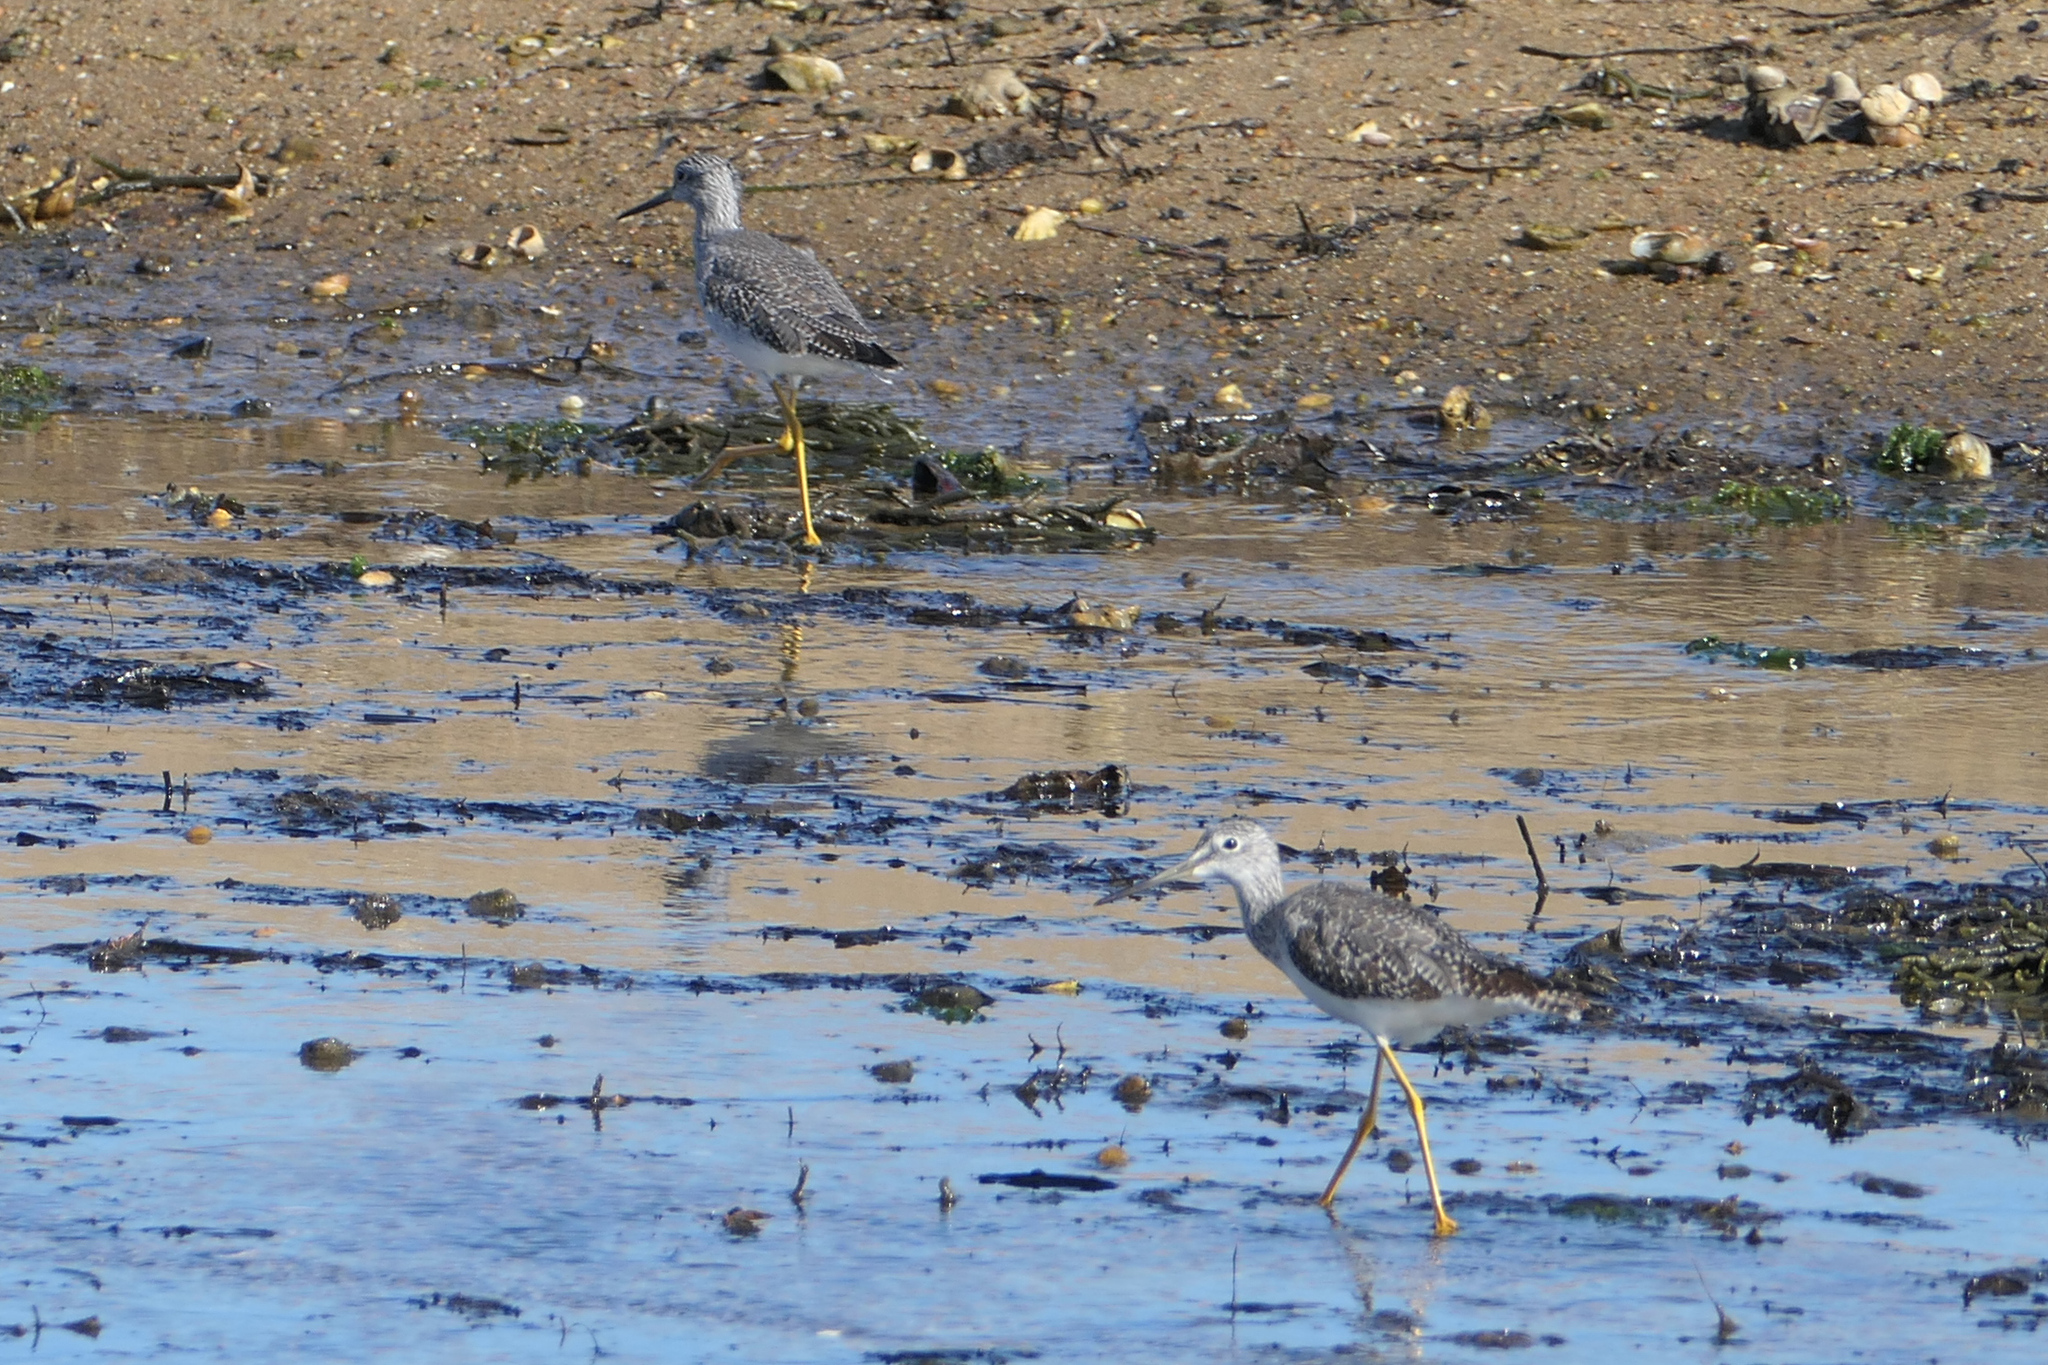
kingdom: Animalia
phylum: Chordata
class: Aves
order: Charadriiformes
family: Scolopacidae
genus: Tringa
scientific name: Tringa melanoleuca
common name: Greater yellowlegs
